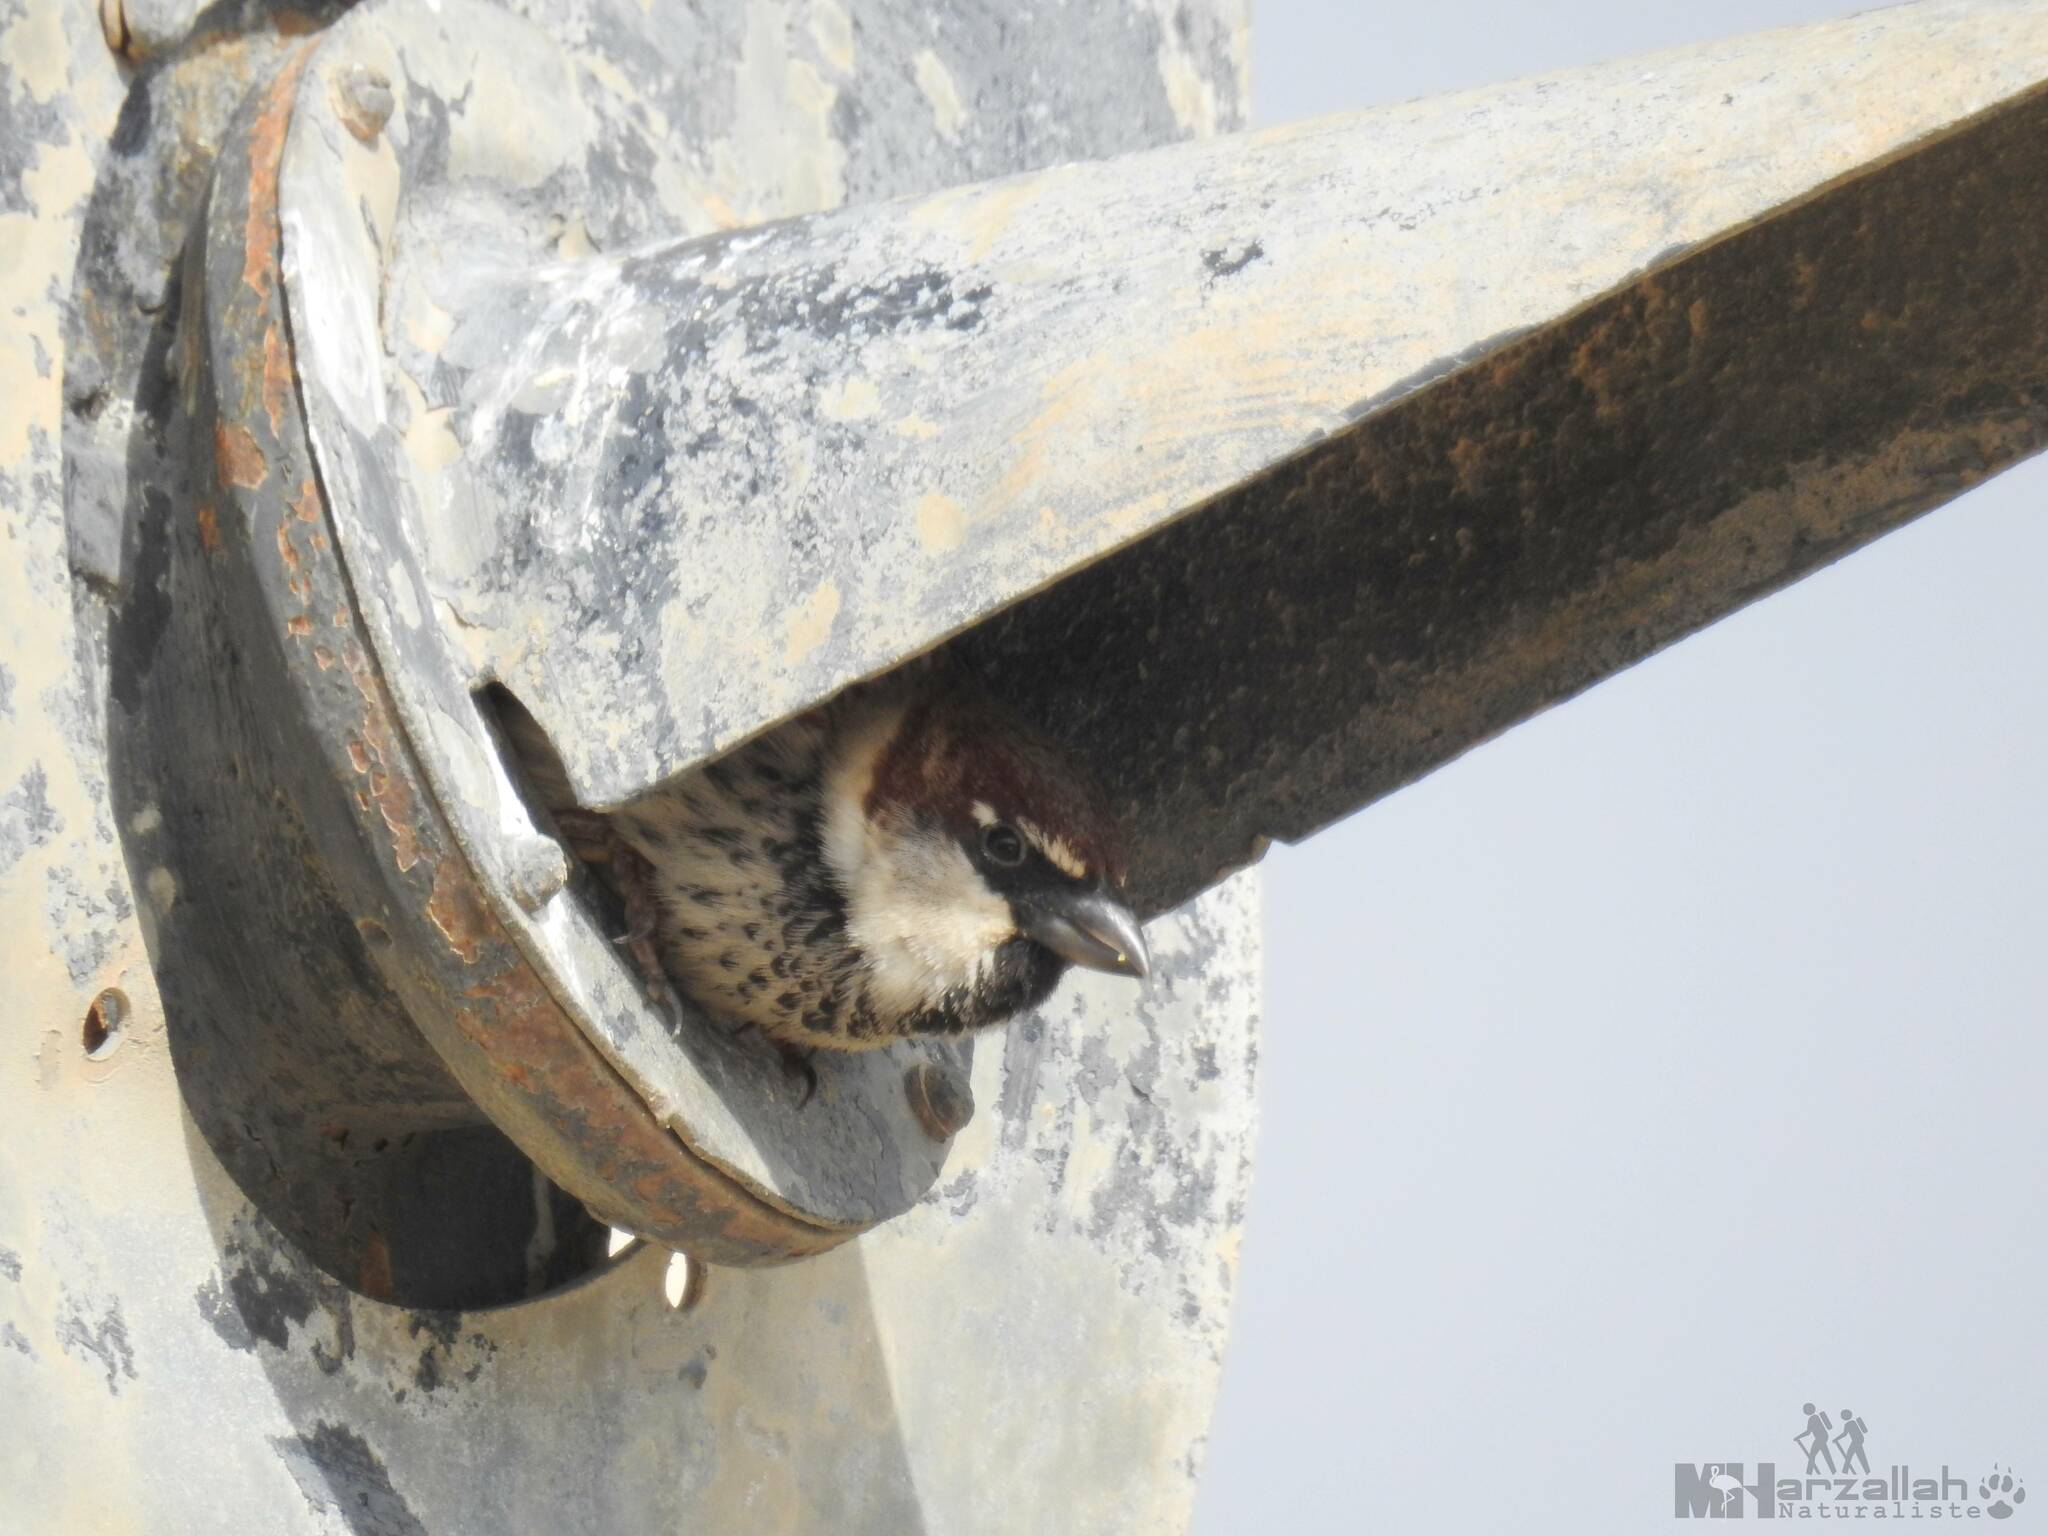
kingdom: Animalia
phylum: Chordata
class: Aves
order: Passeriformes
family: Passeridae
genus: Passer
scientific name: Passer hispaniolensis
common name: Spanish sparrow
